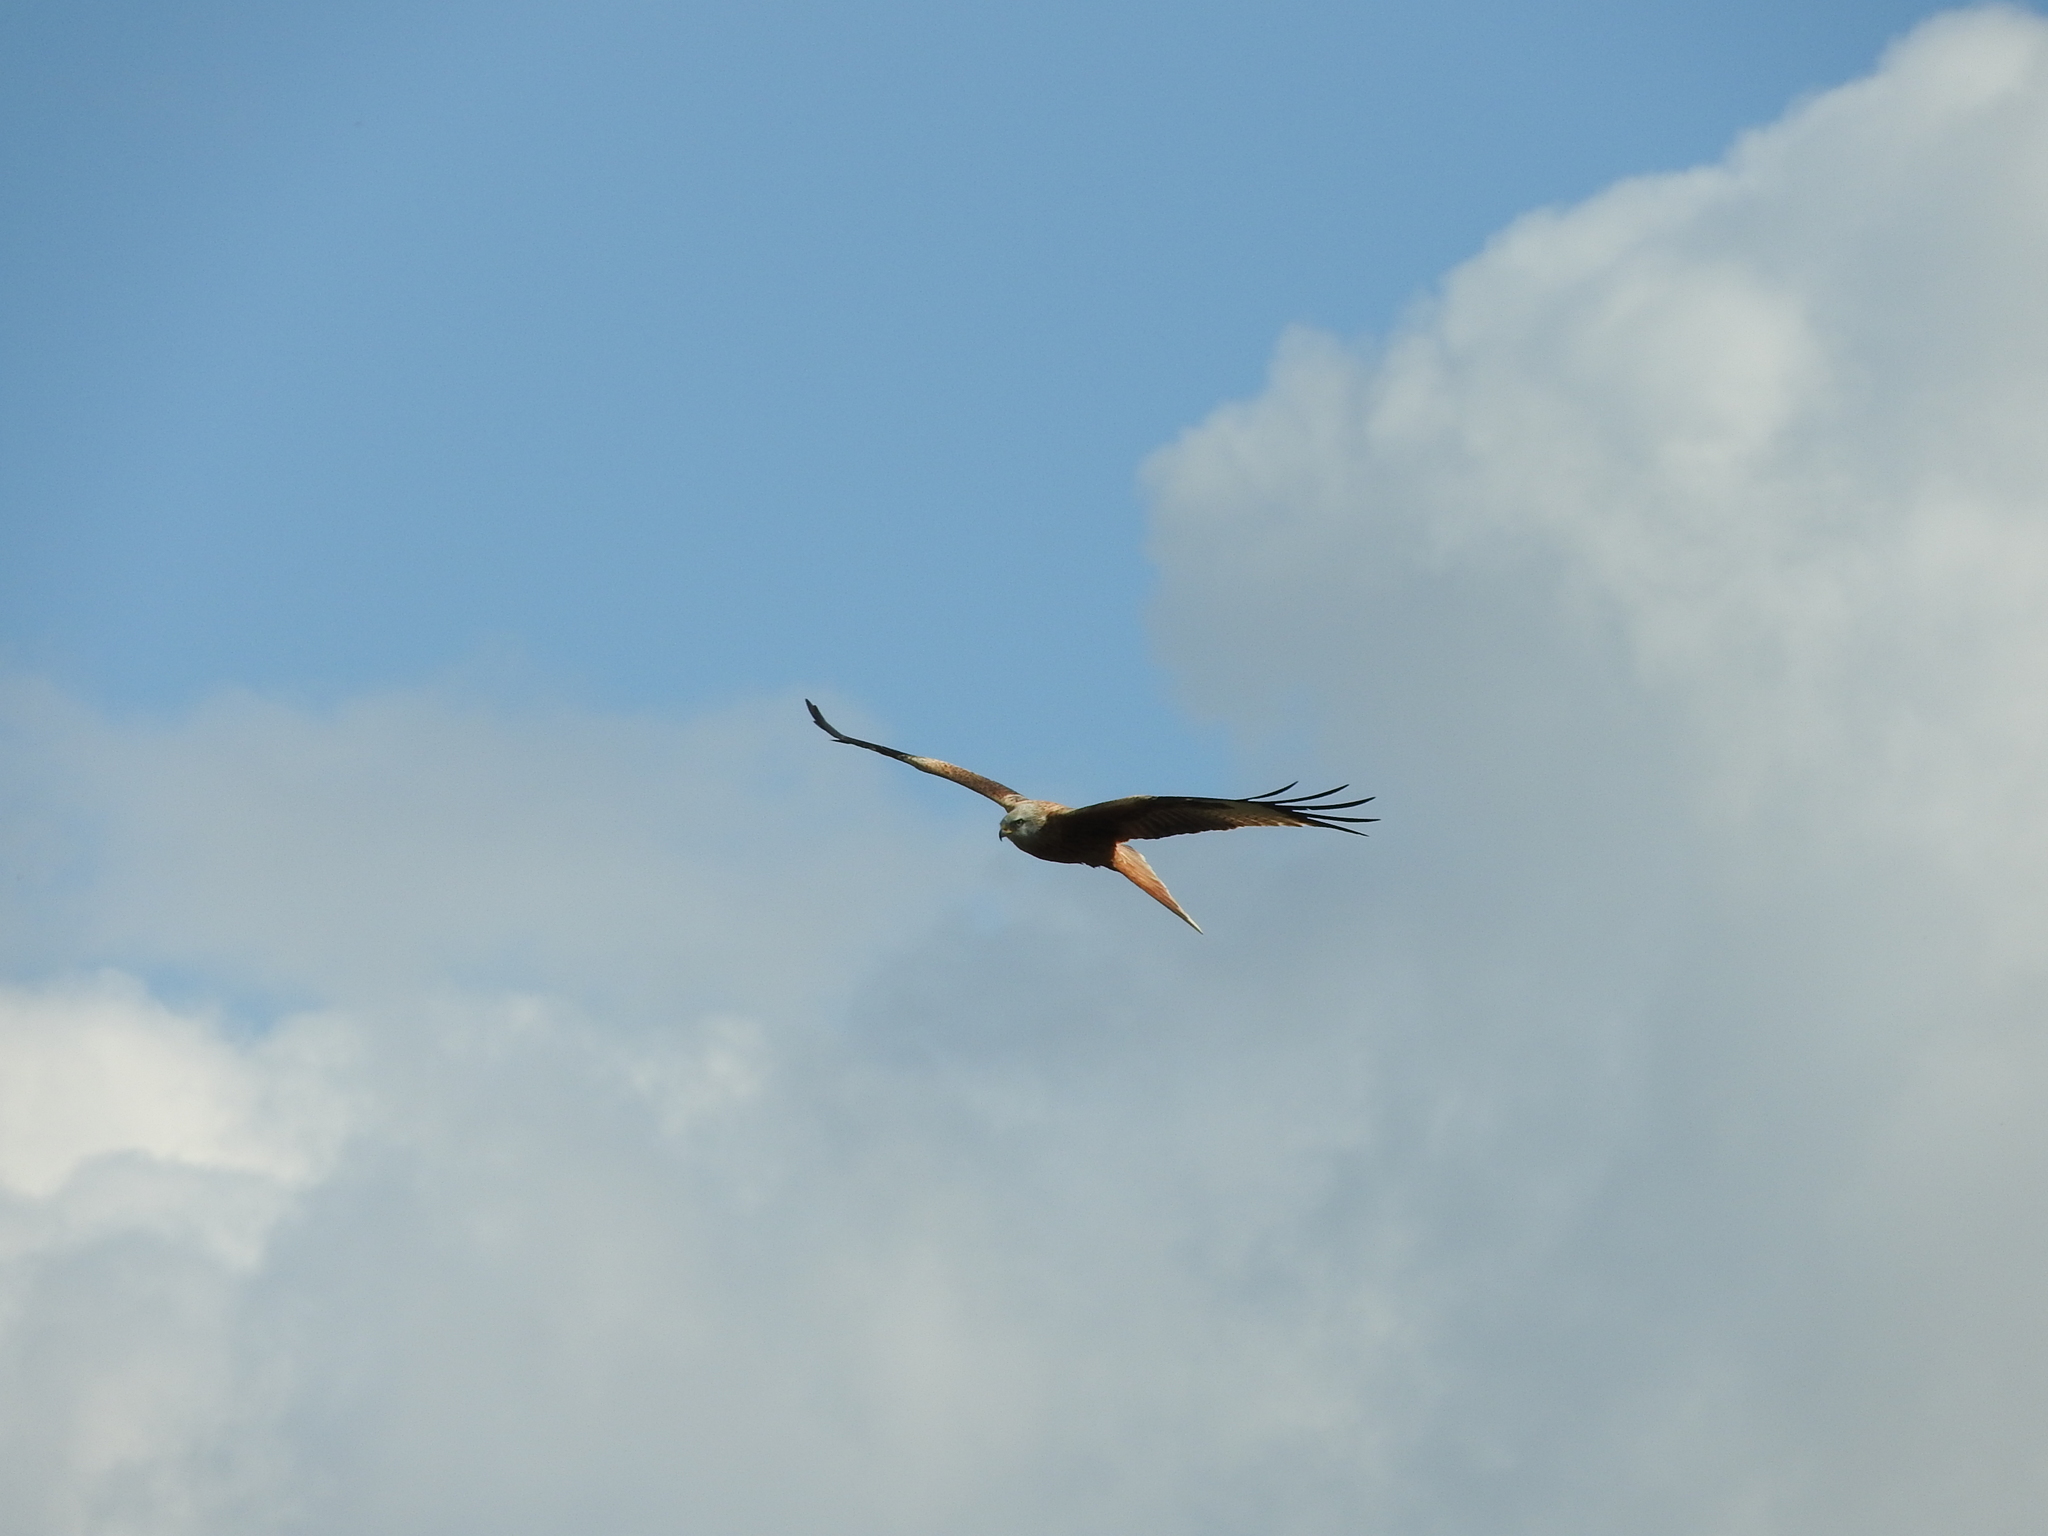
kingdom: Animalia
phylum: Chordata
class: Aves
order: Accipitriformes
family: Accipitridae
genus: Milvus
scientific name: Milvus milvus
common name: Red kite
